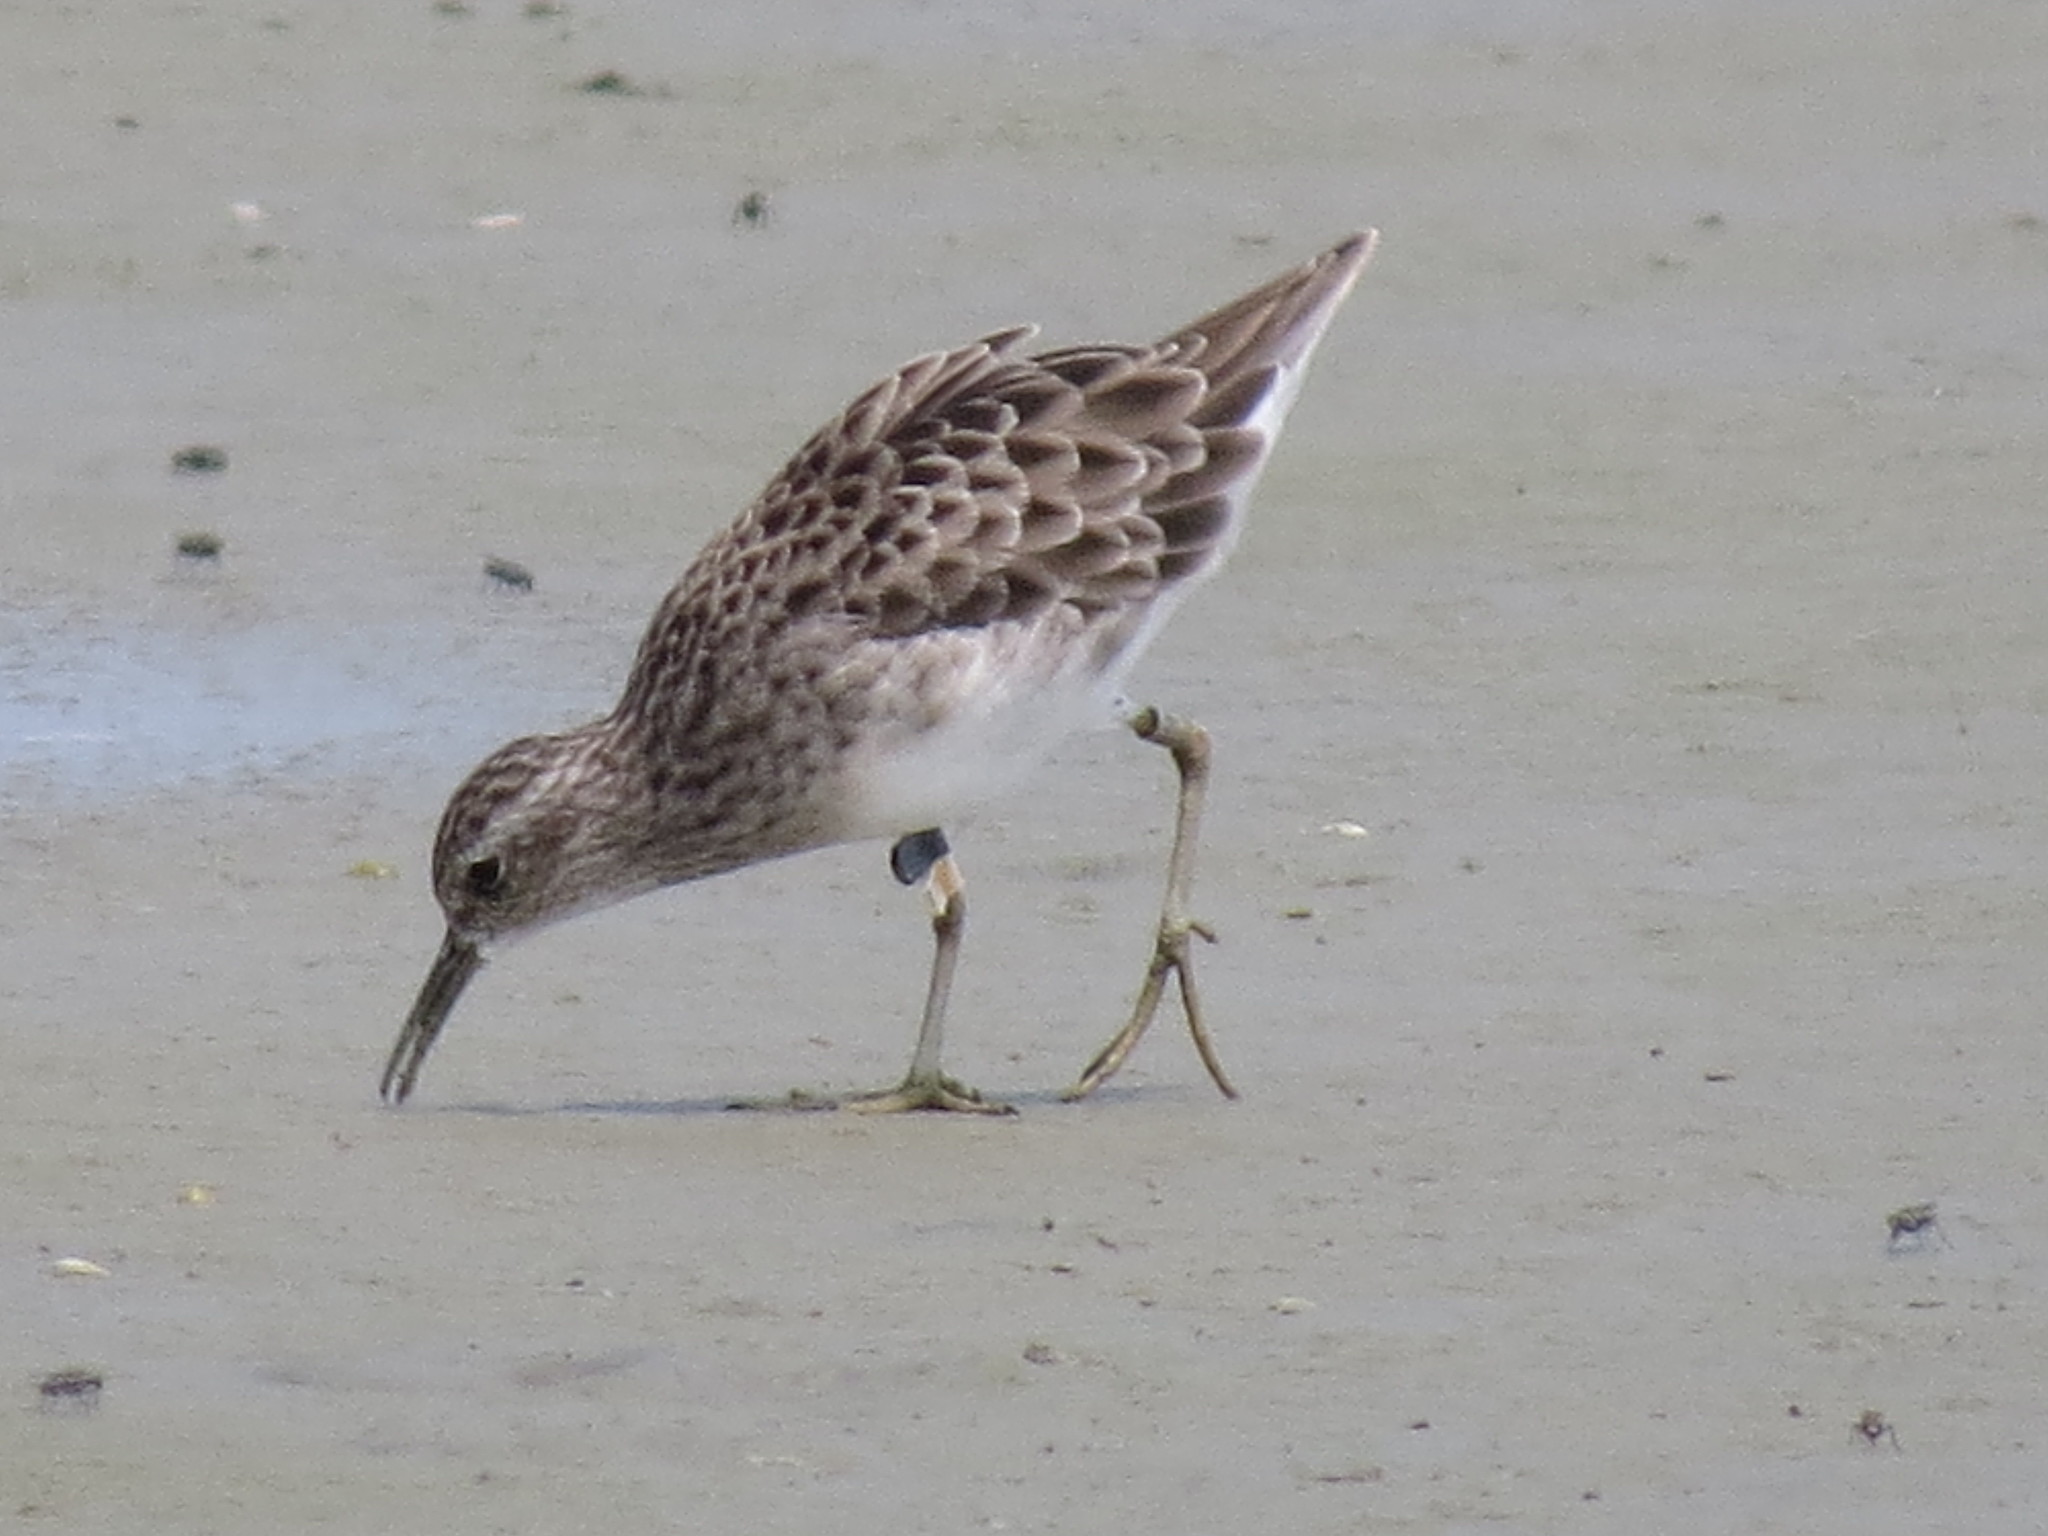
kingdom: Animalia
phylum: Chordata
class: Aves
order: Charadriiformes
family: Scolopacidae
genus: Calidris
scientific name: Calidris acuminata
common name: Sharp-tailed sandpiper
